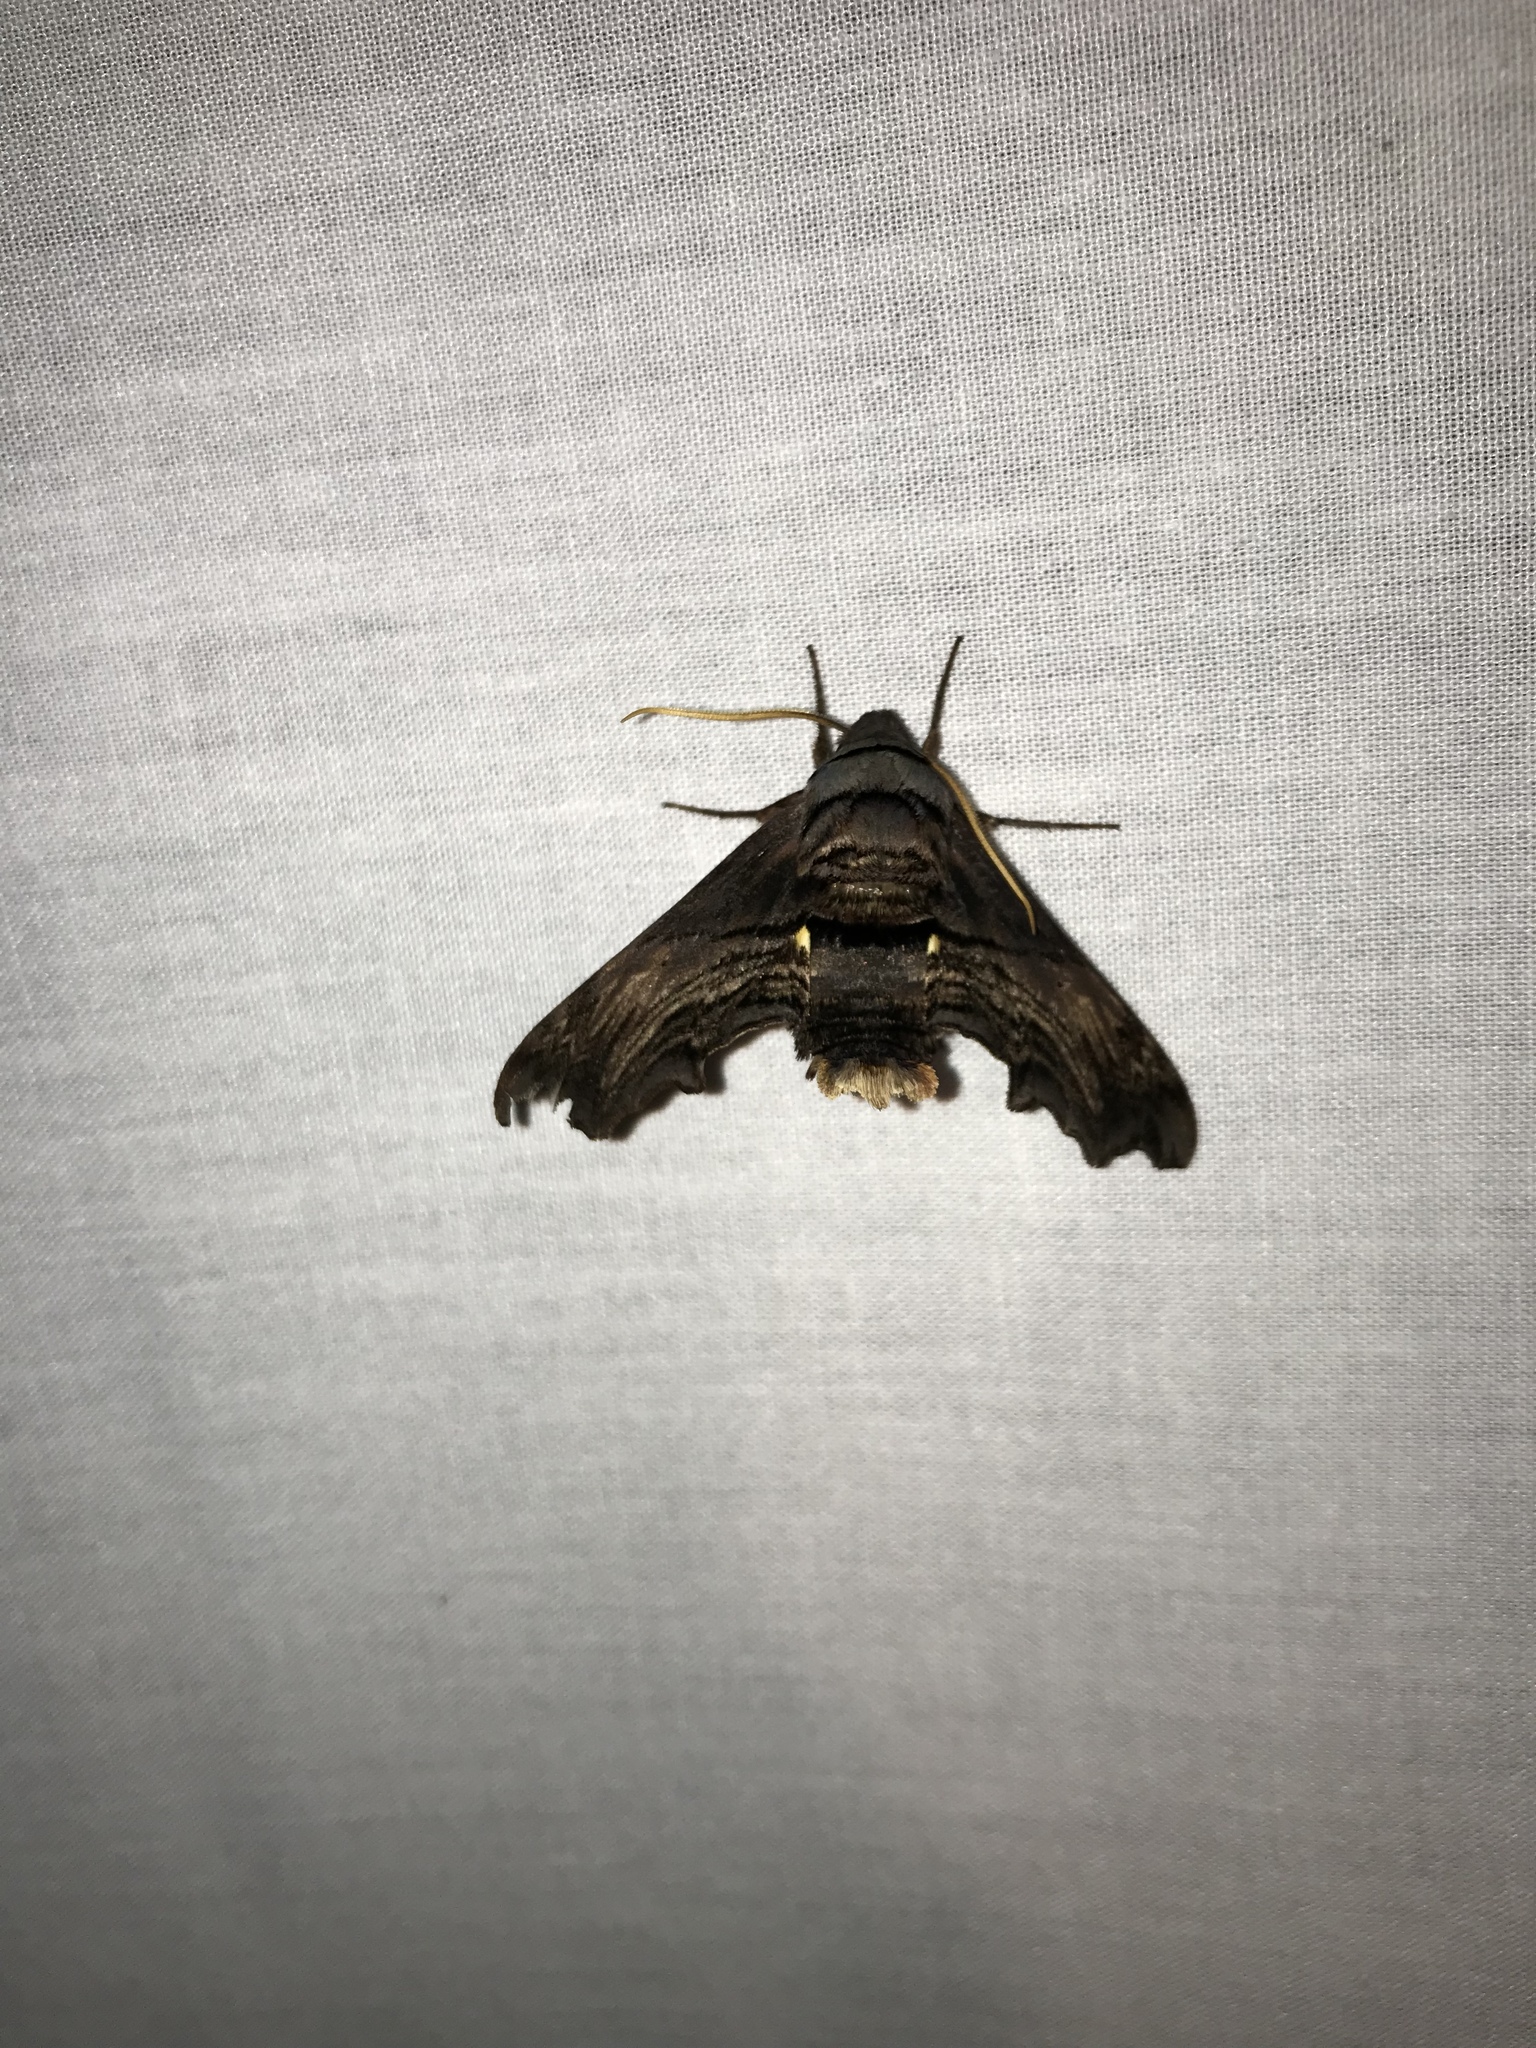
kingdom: Animalia
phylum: Arthropoda
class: Insecta
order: Lepidoptera
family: Sphingidae
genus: Sphecodina
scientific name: Sphecodina abbottii
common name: Abbott's sphinx
